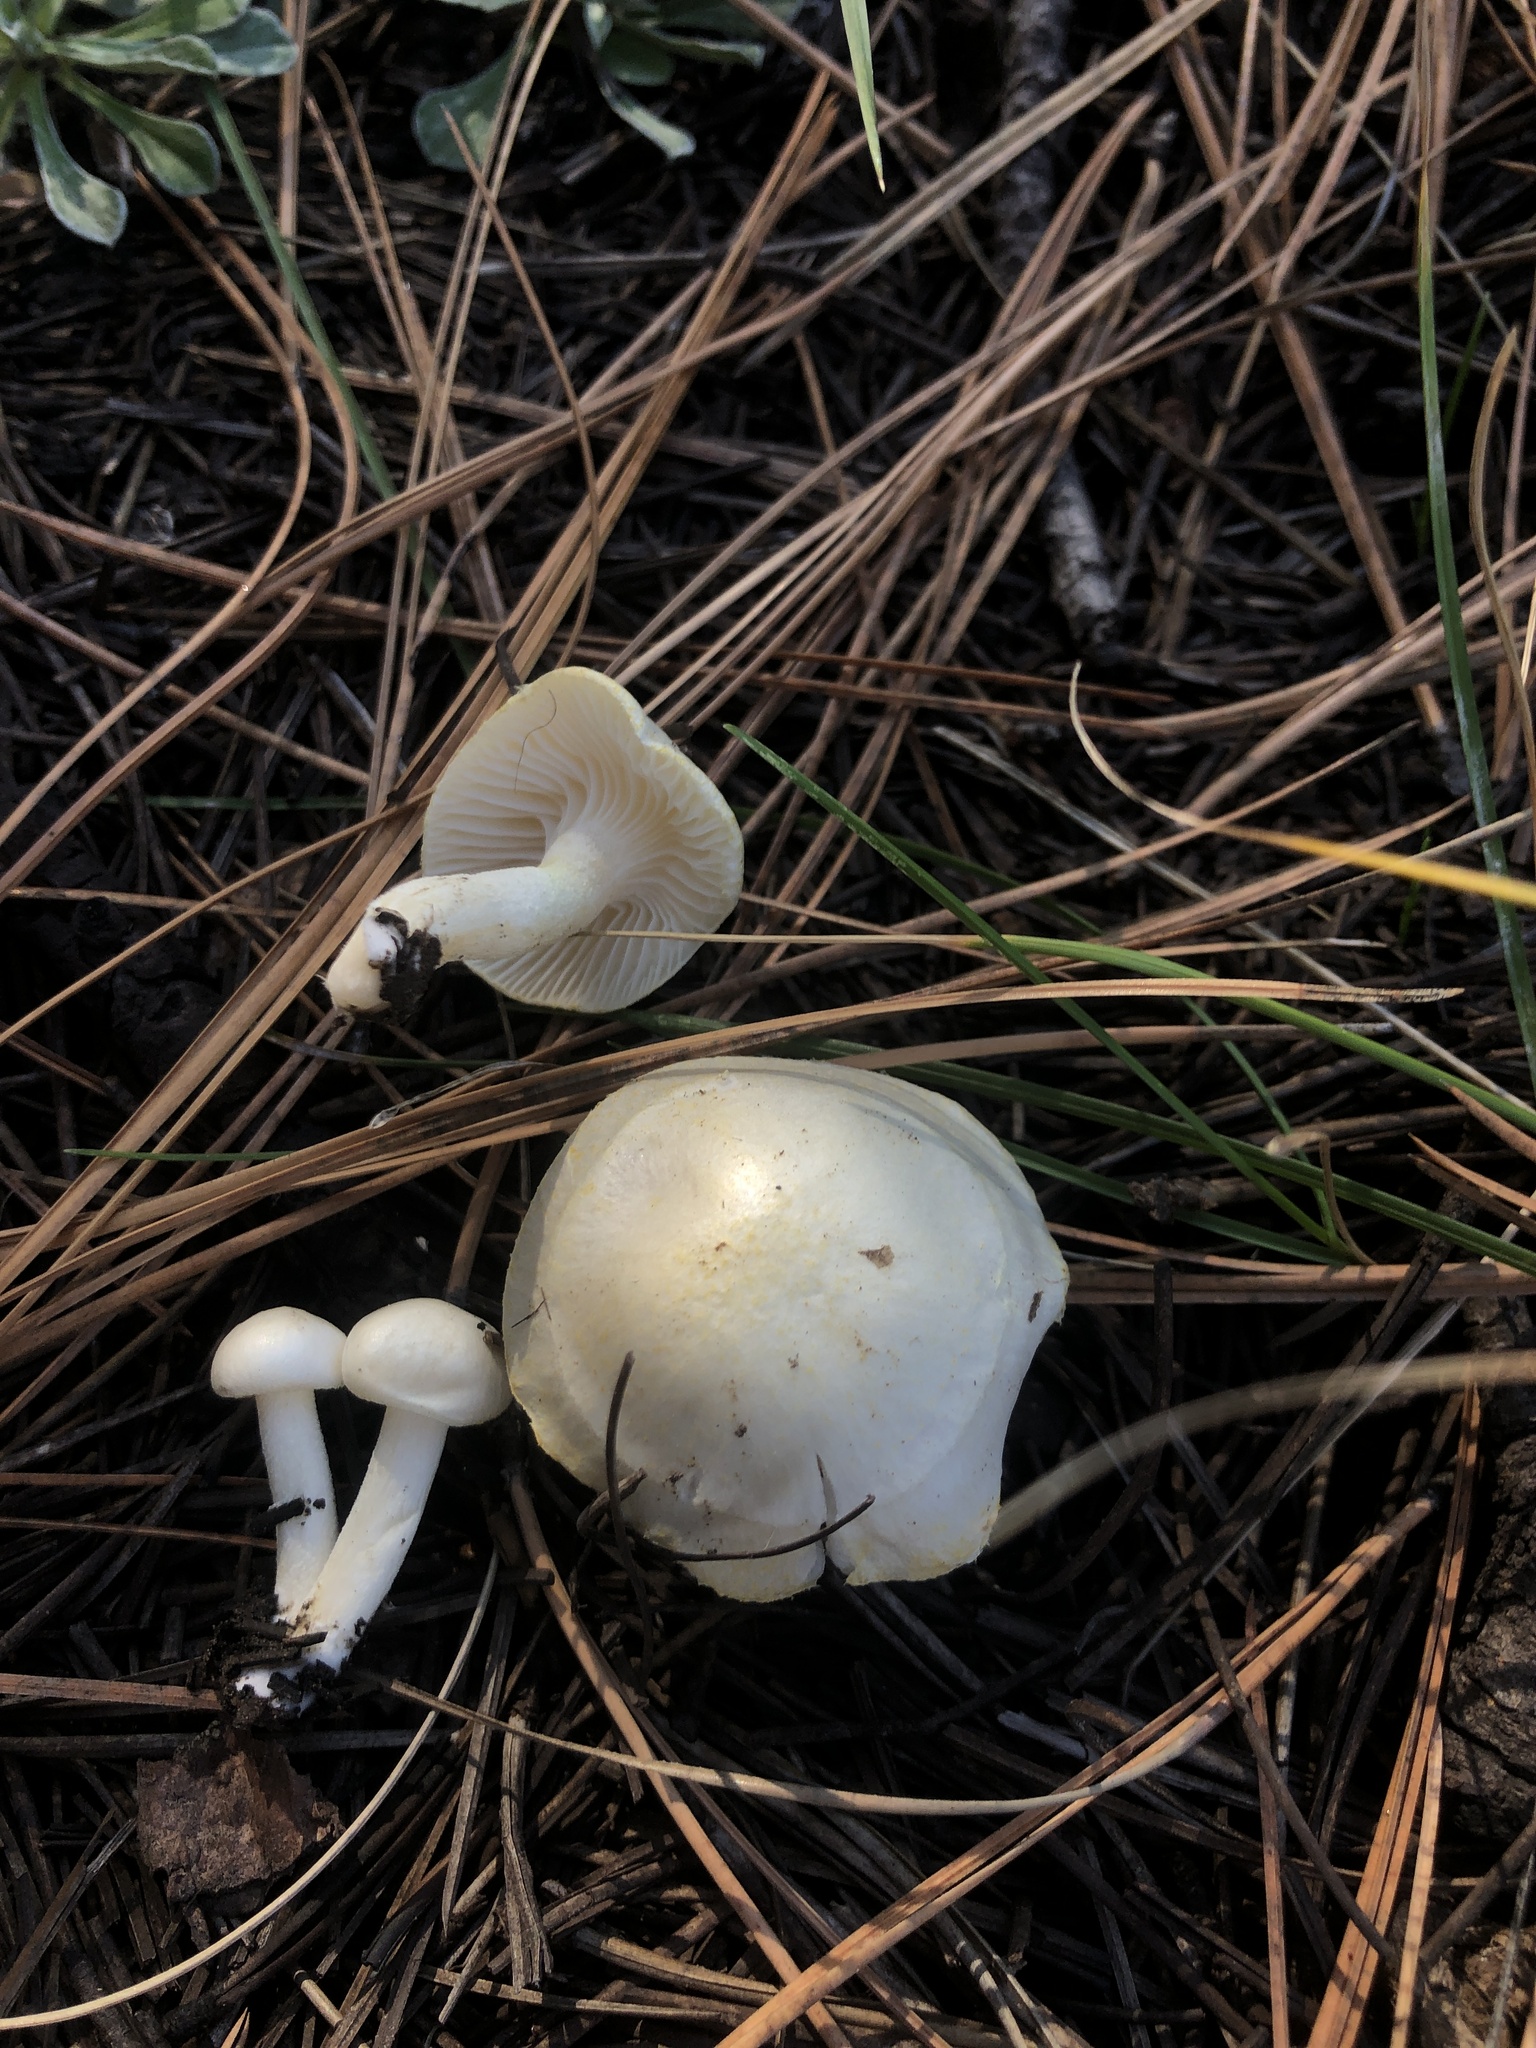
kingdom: Fungi
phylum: Basidiomycota
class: Agaricomycetes
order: Agaricales
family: Hygrophoraceae
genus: Hygrophorus
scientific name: Hygrophorus chrysodon
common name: Gold flecked woodwax
